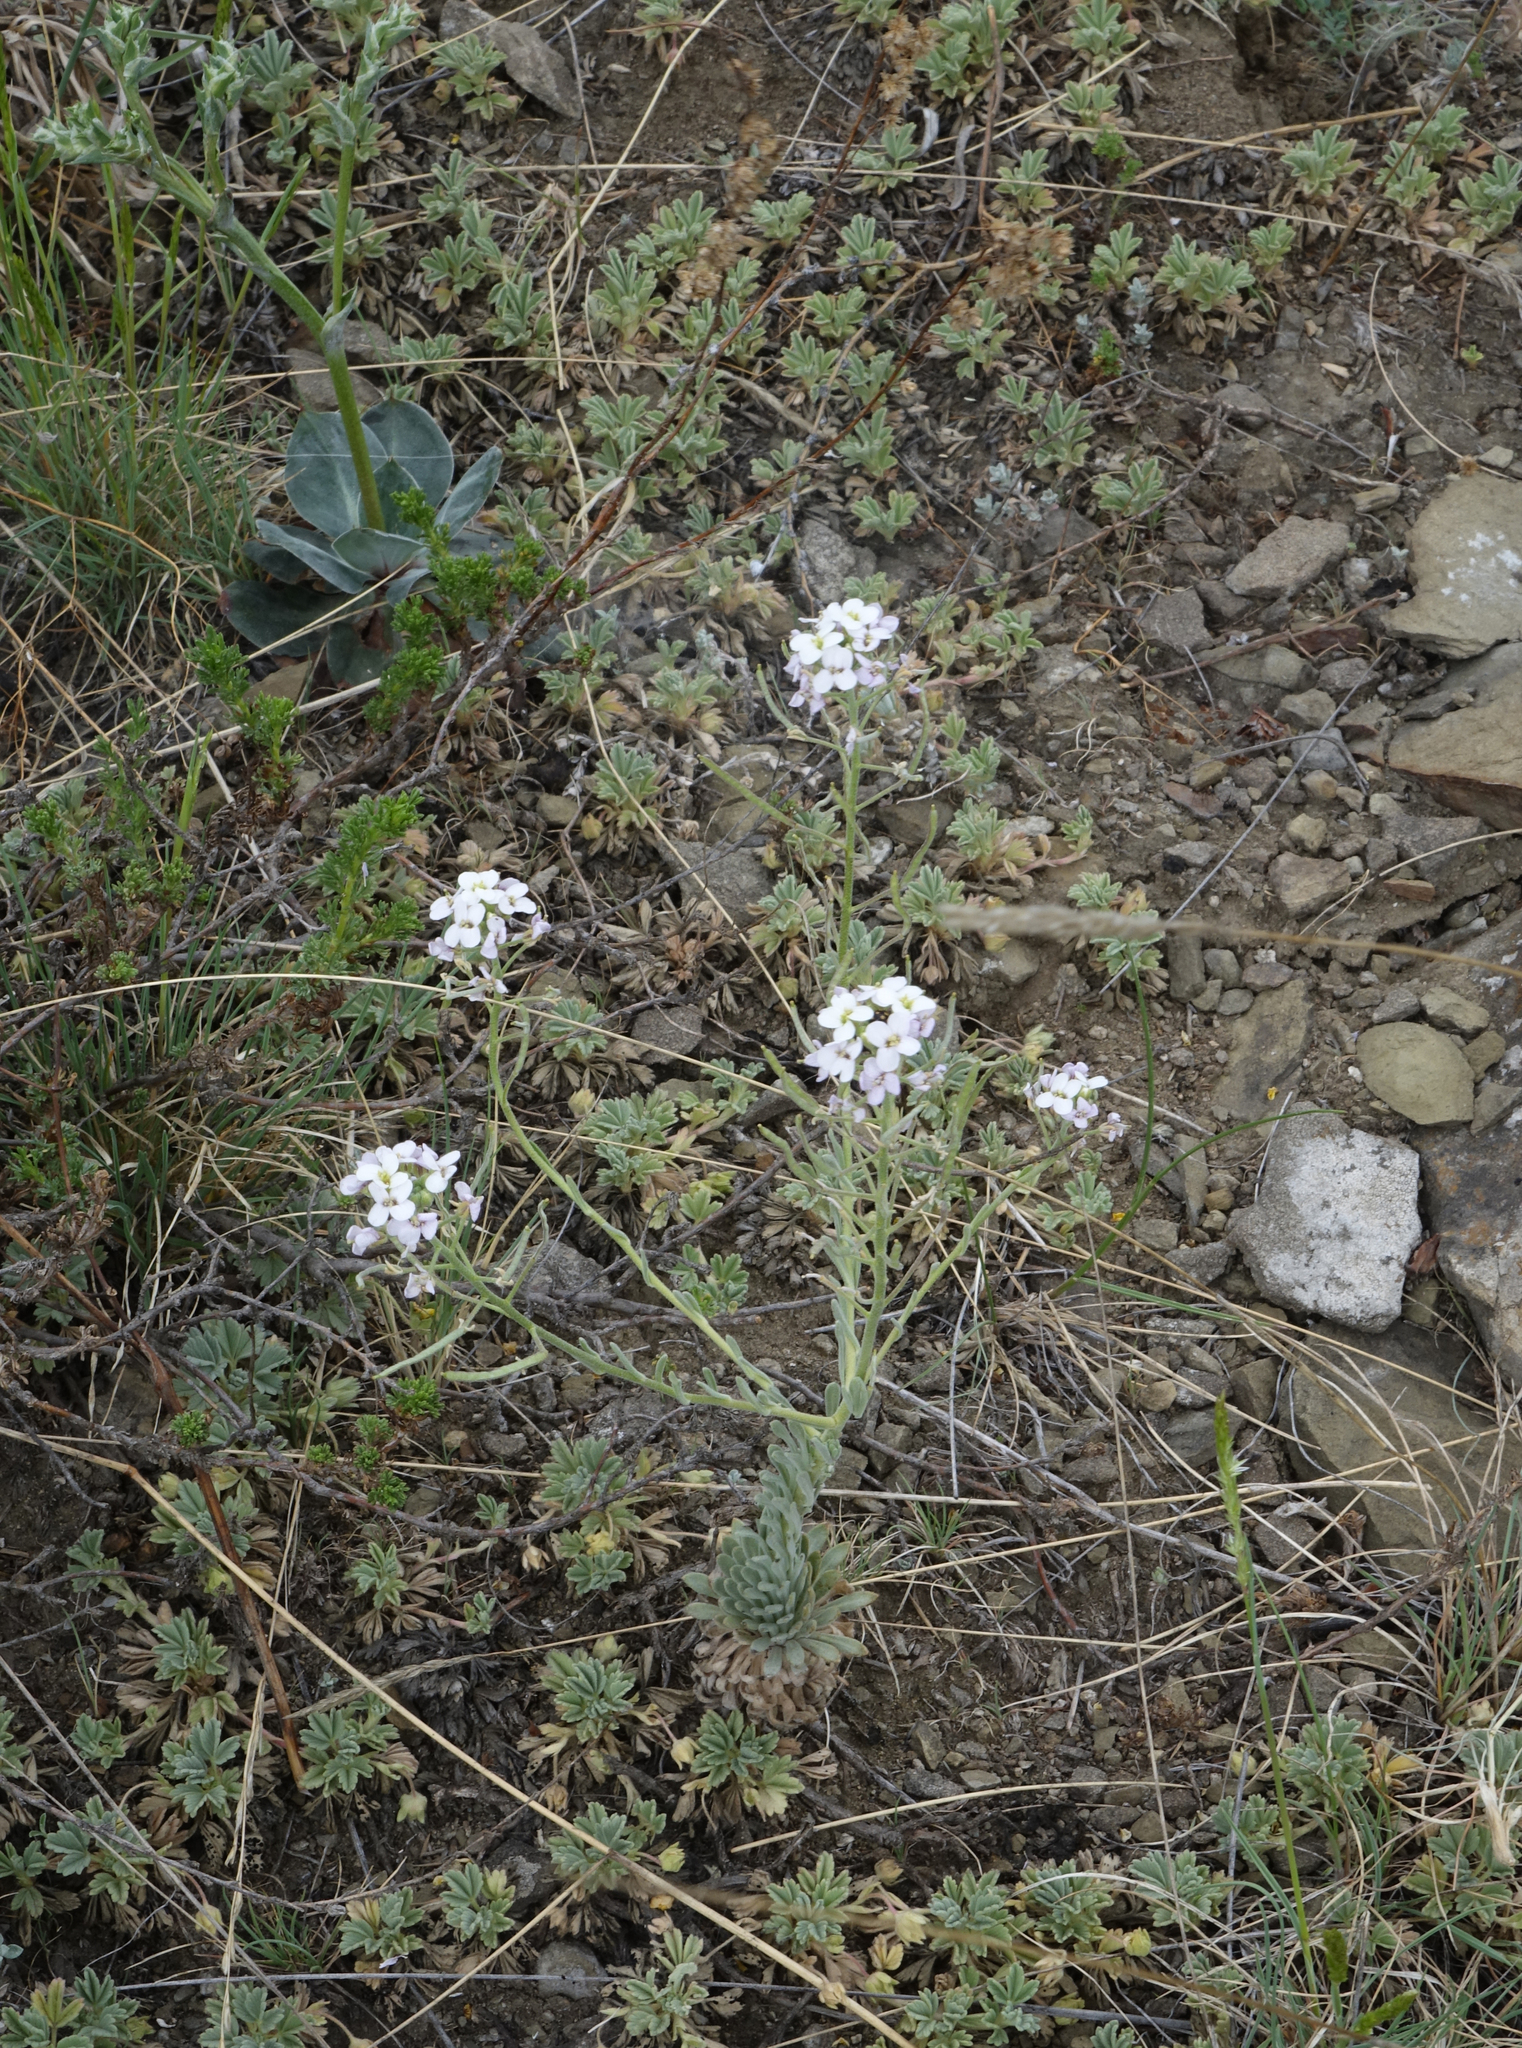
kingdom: Plantae
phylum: Tracheophyta
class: Magnoliopsida
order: Brassicales
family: Brassicaceae
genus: Stevenia
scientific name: Stevenia incarnata
